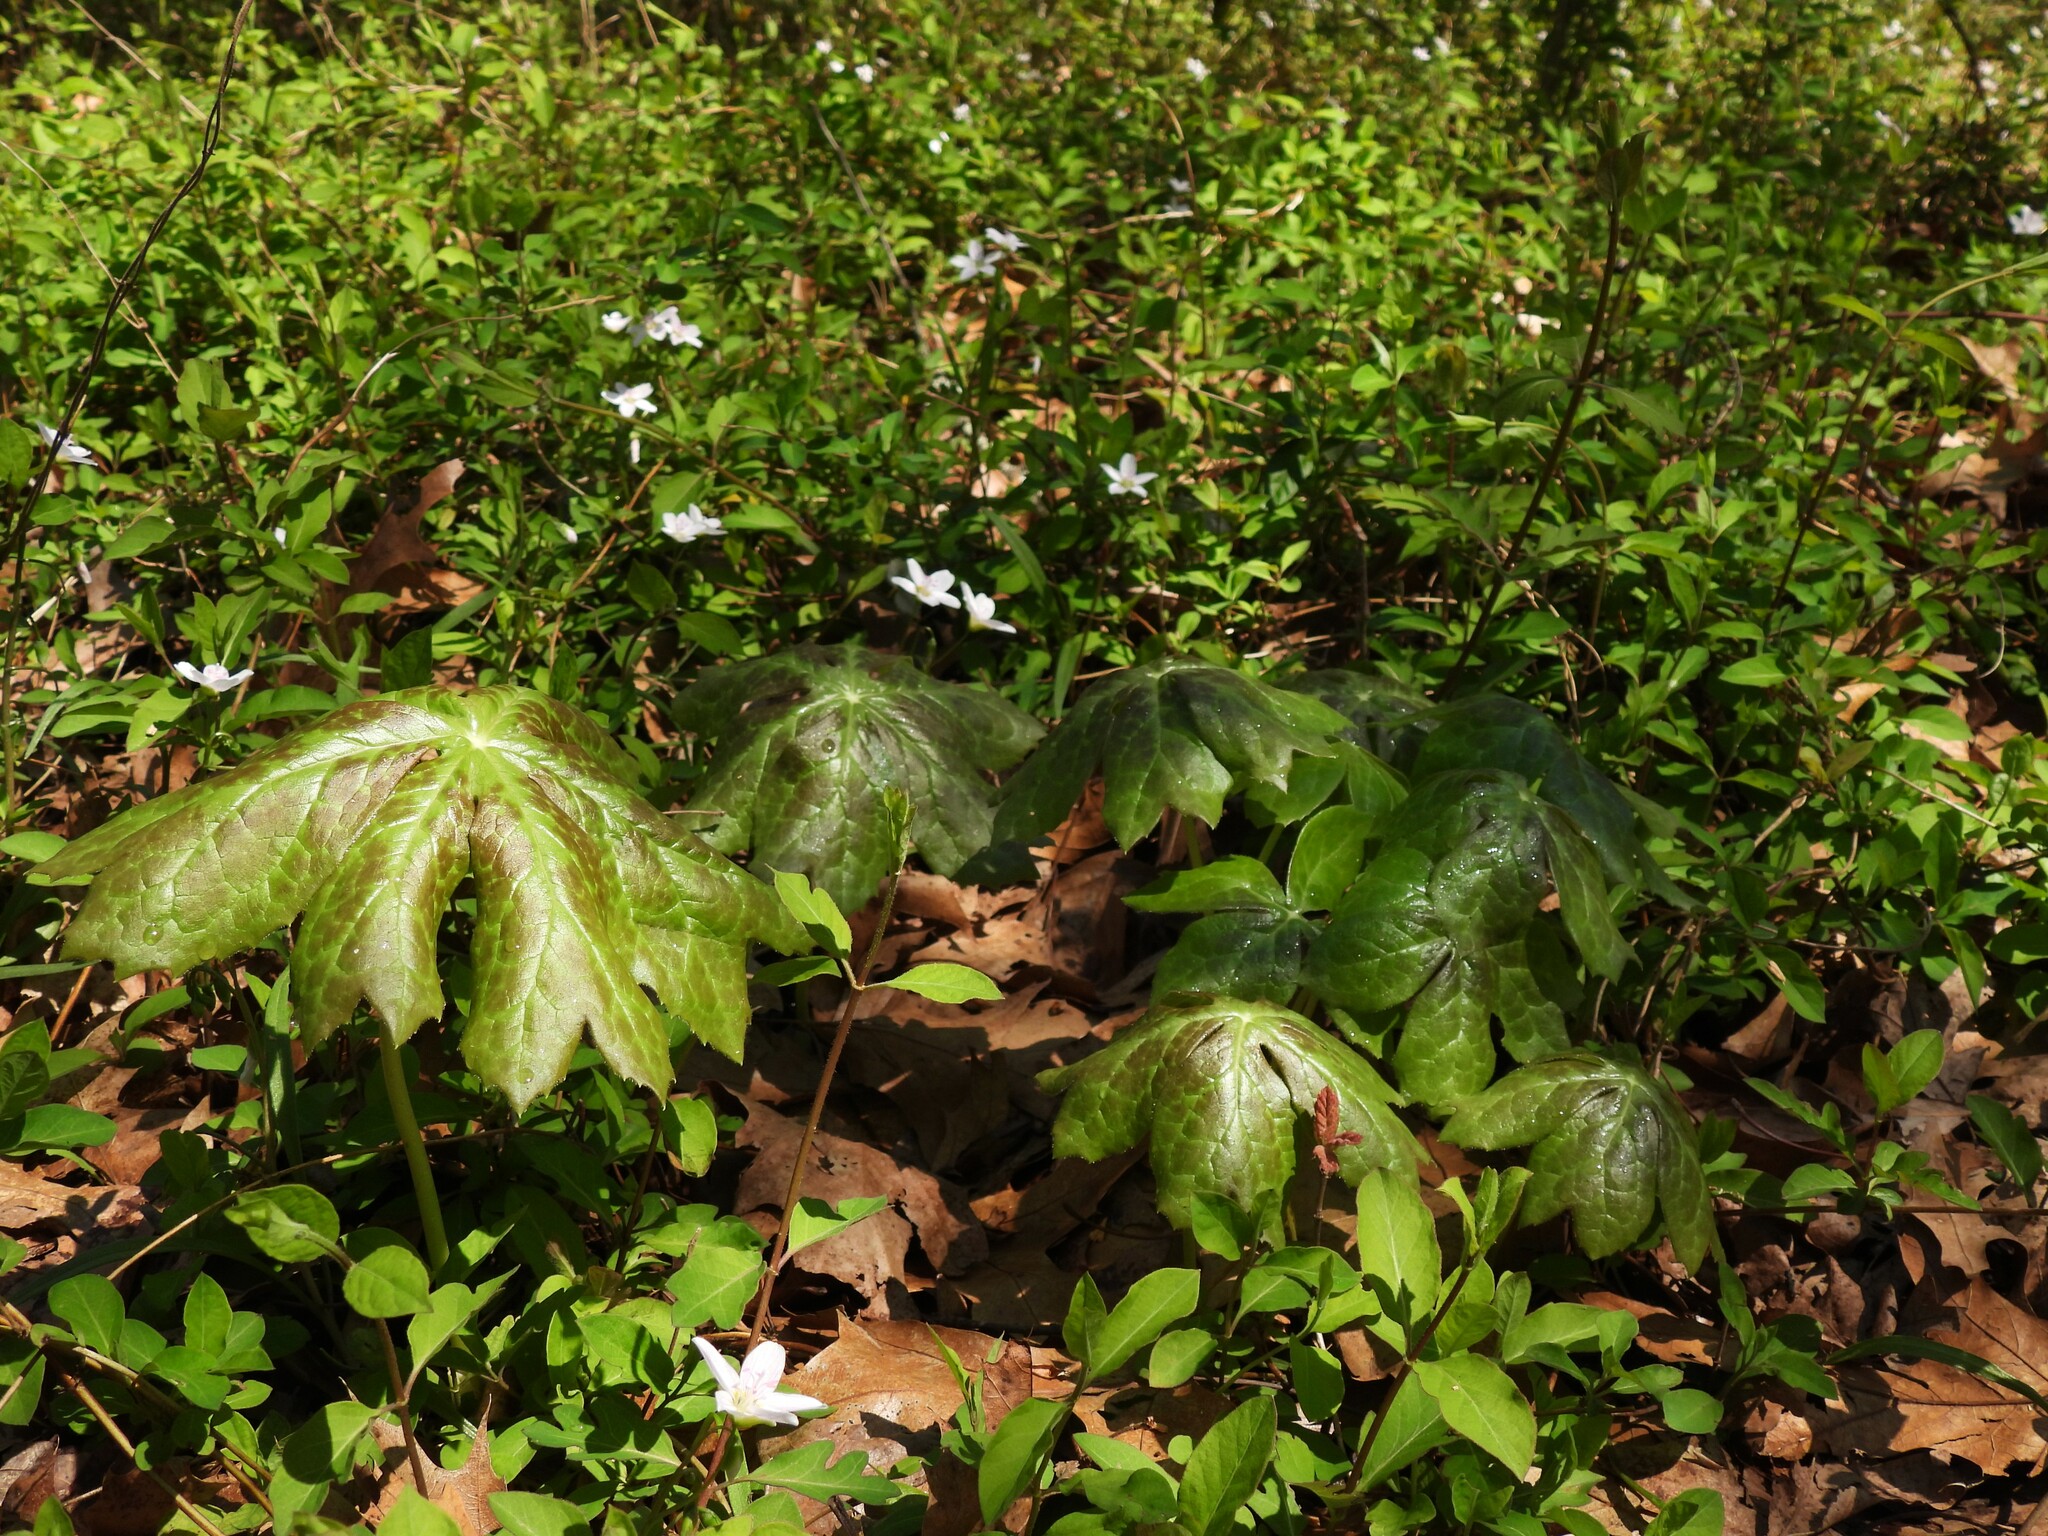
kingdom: Plantae
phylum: Tracheophyta
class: Magnoliopsida
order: Ranunculales
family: Berberidaceae
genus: Podophyllum
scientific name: Podophyllum peltatum
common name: Wild mandrake
